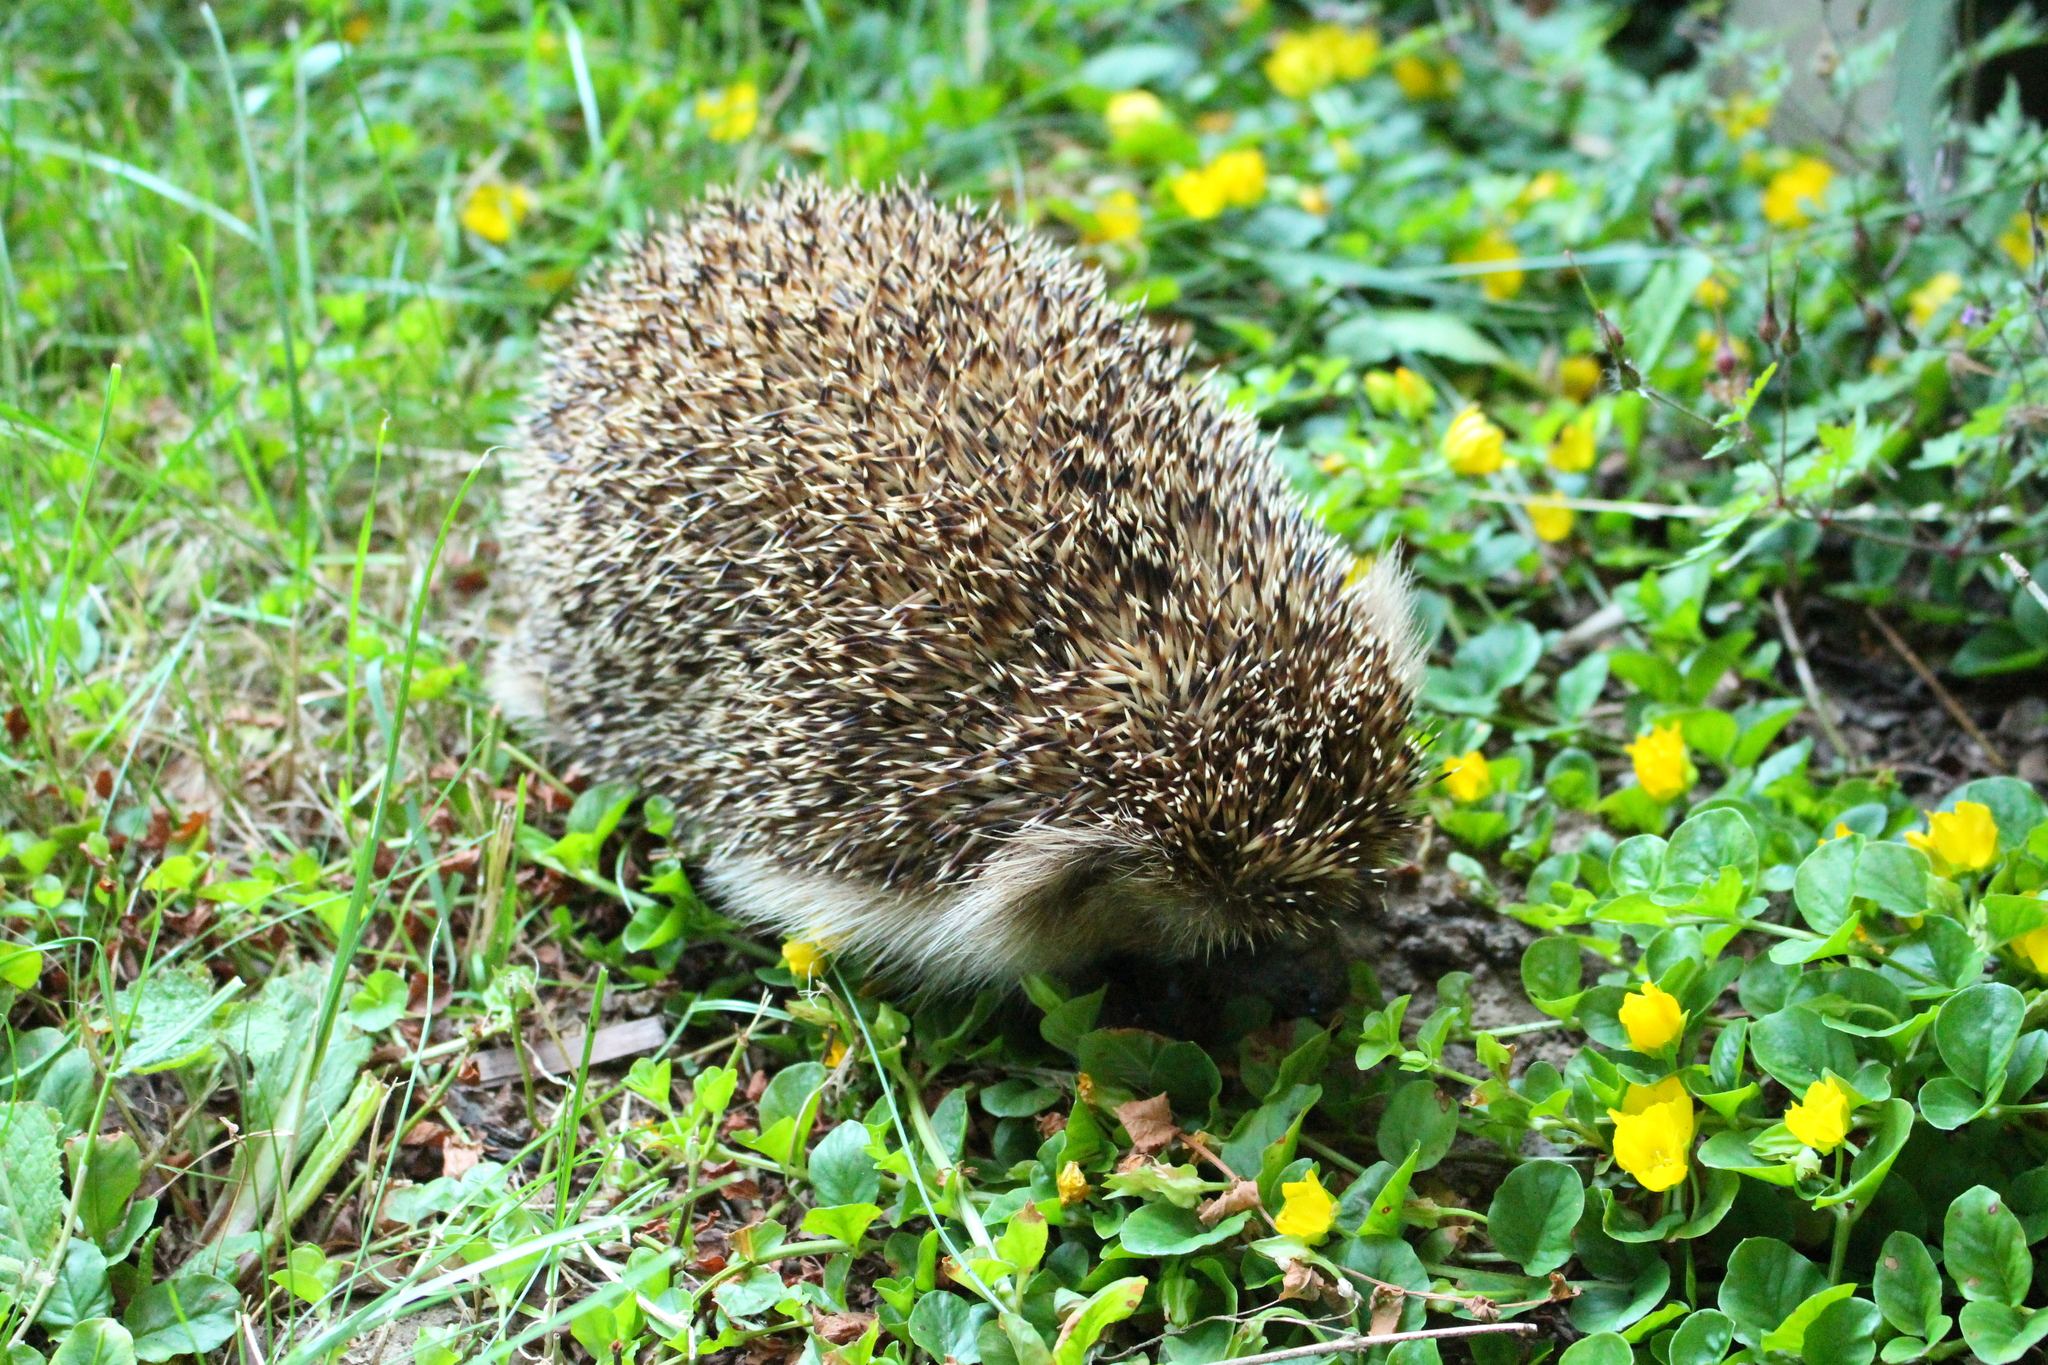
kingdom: Animalia
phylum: Chordata
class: Mammalia
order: Erinaceomorpha
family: Erinaceidae
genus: Erinaceus
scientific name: Erinaceus europaeus
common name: West european hedgehog
